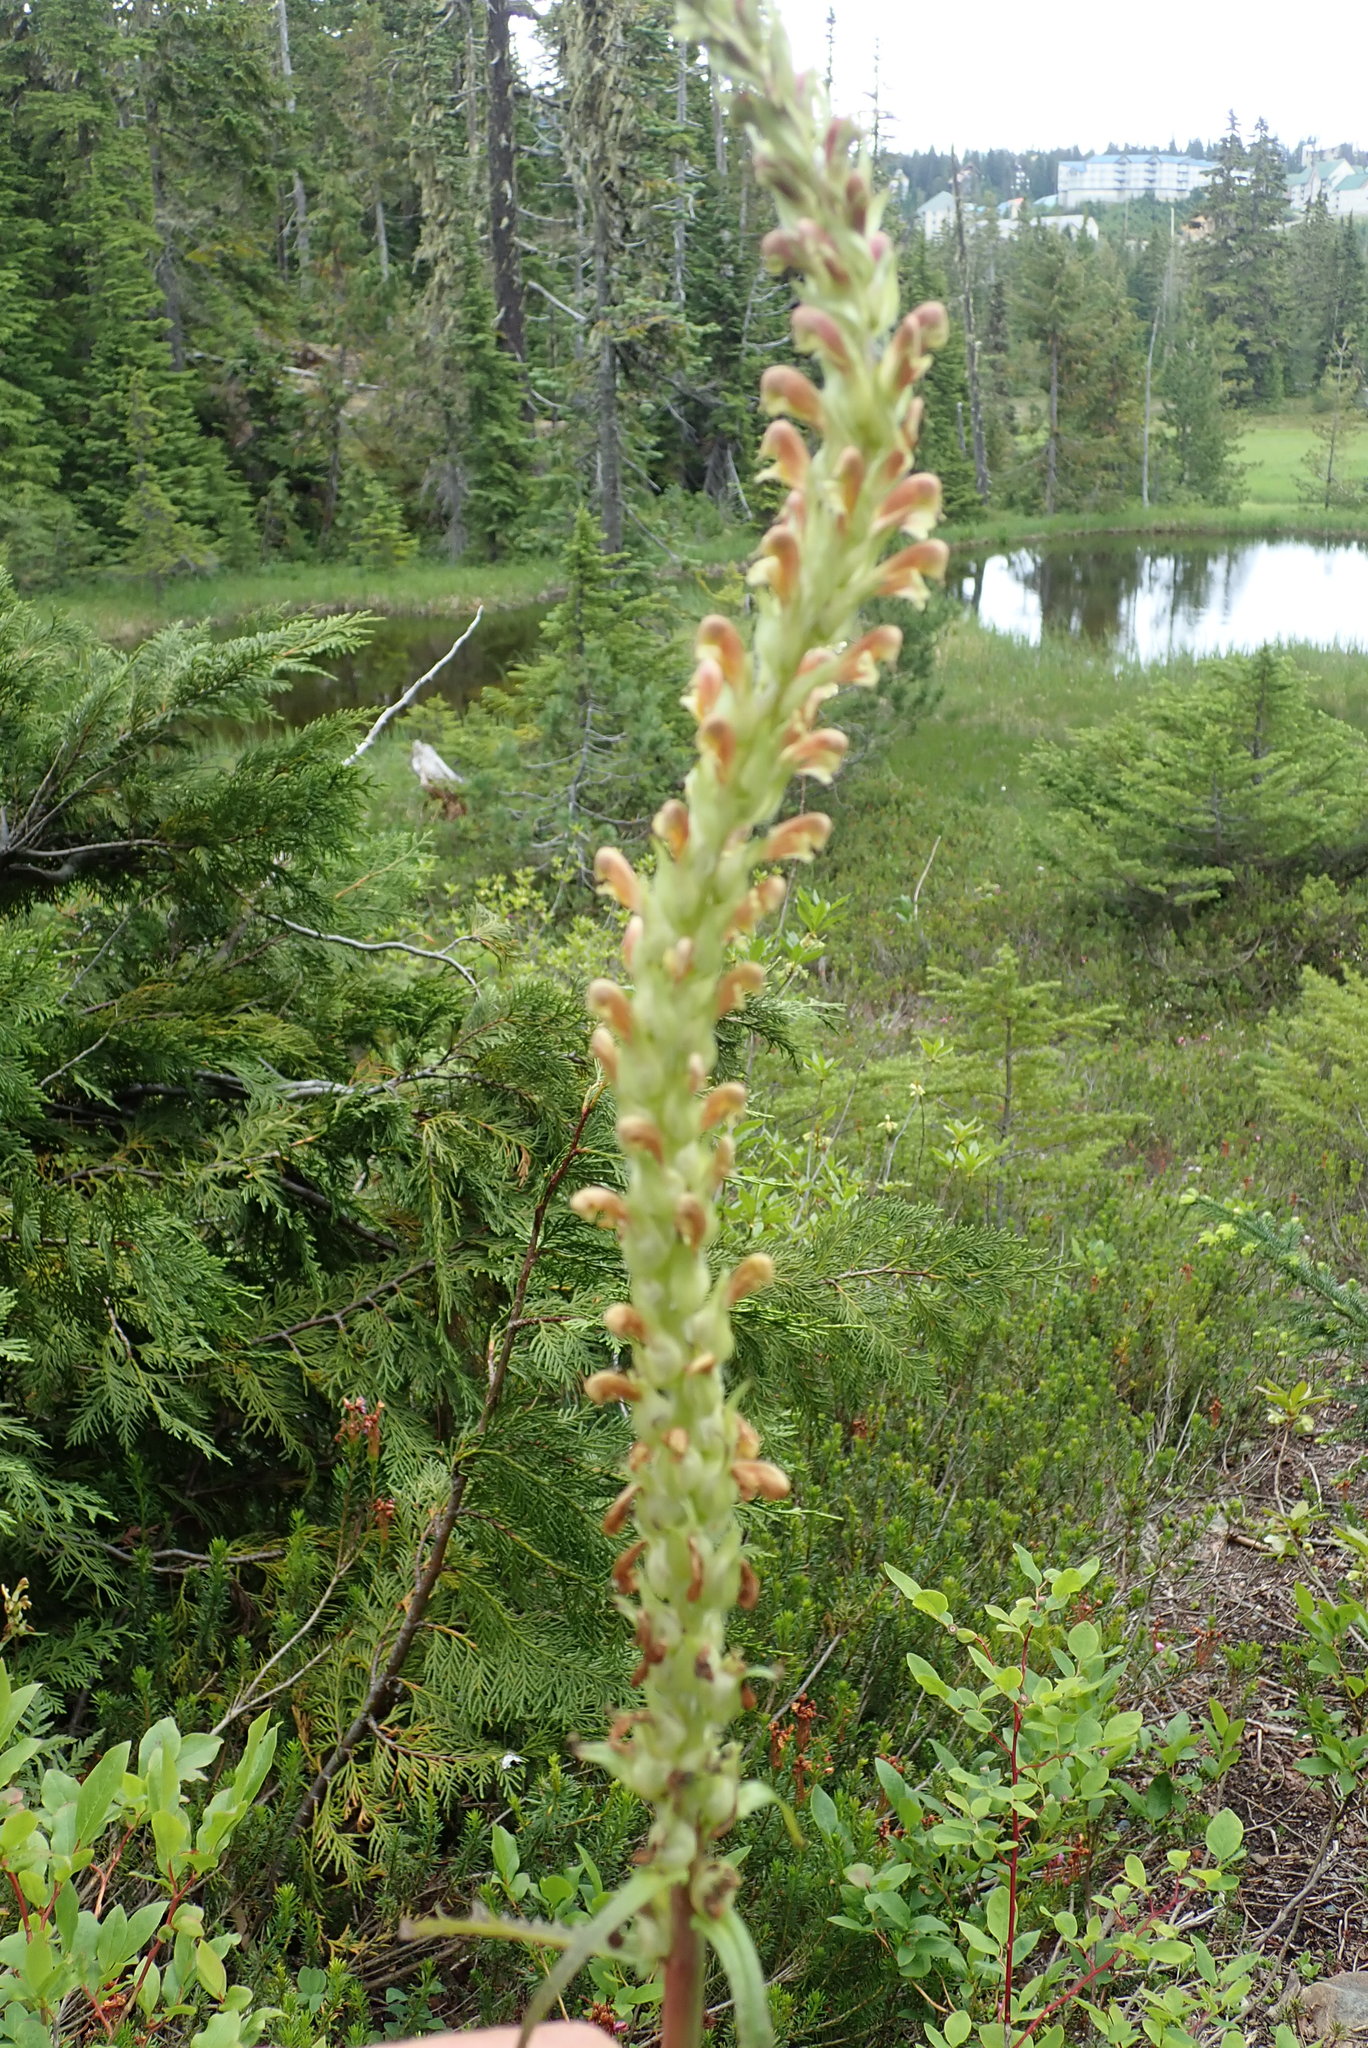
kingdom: Plantae
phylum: Tracheophyta
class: Magnoliopsida
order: Lamiales
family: Orobanchaceae
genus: Pedicularis
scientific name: Pedicularis bracteosa
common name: Bracted lousewort
